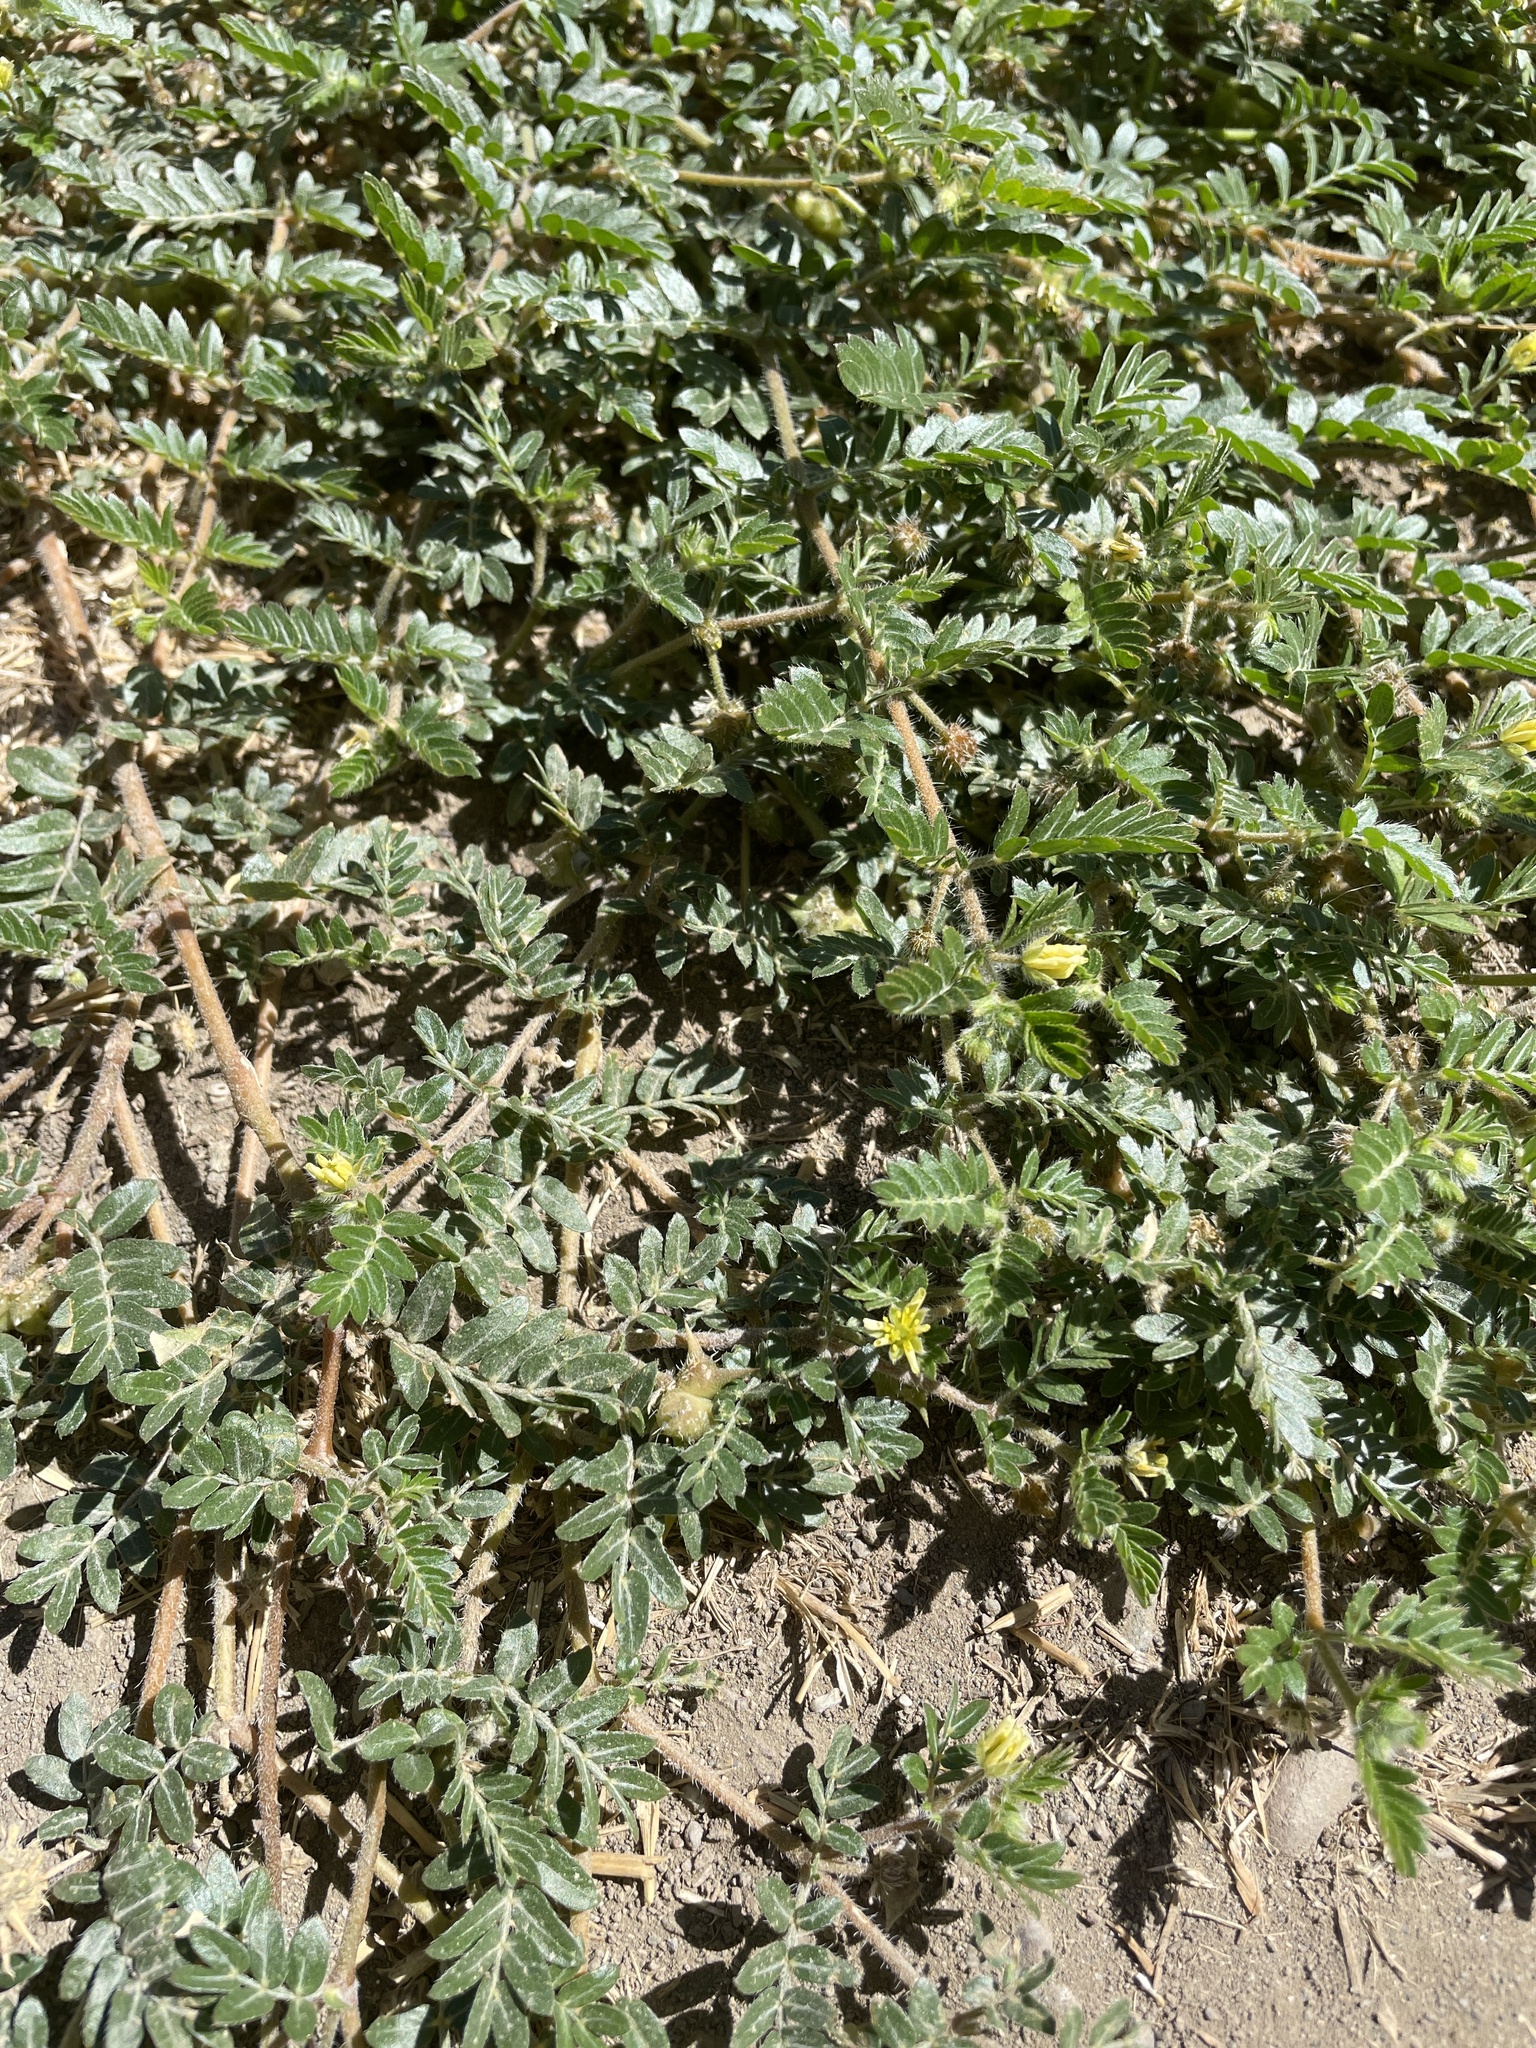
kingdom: Plantae
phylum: Tracheophyta
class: Magnoliopsida
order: Zygophyllales
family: Zygophyllaceae
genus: Tribulus
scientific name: Tribulus terrestris
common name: Puncturevine
